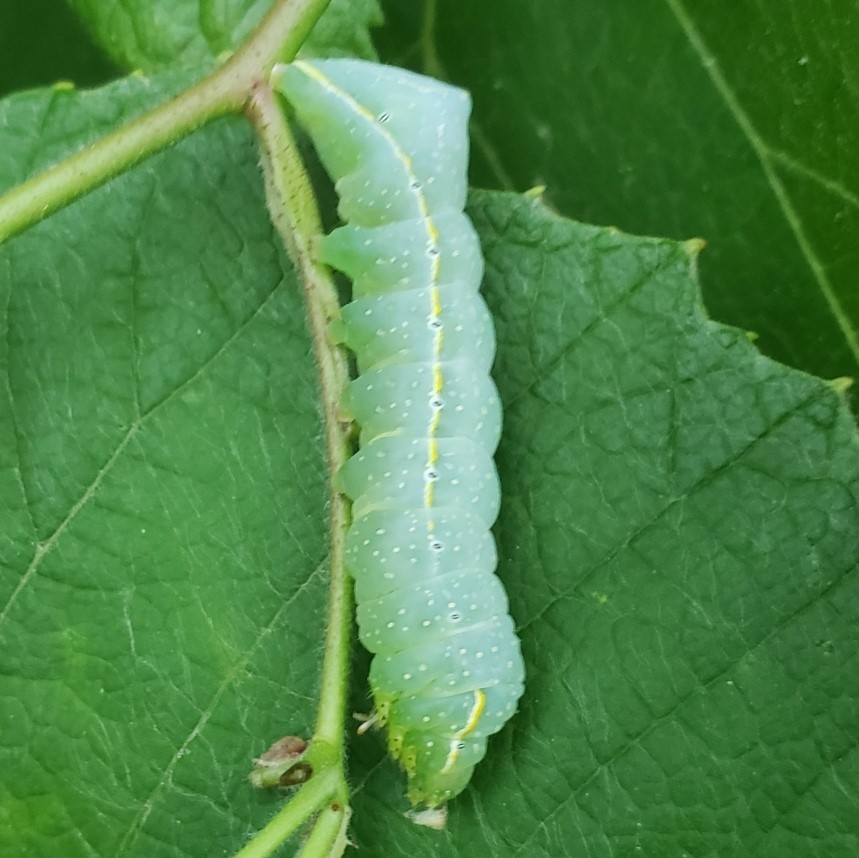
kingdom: Animalia
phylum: Arthropoda
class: Insecta
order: Lepidoptera
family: Noctuidae
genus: Amphipyra
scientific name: Amphipyra pyramidoides
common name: American copper underwing
